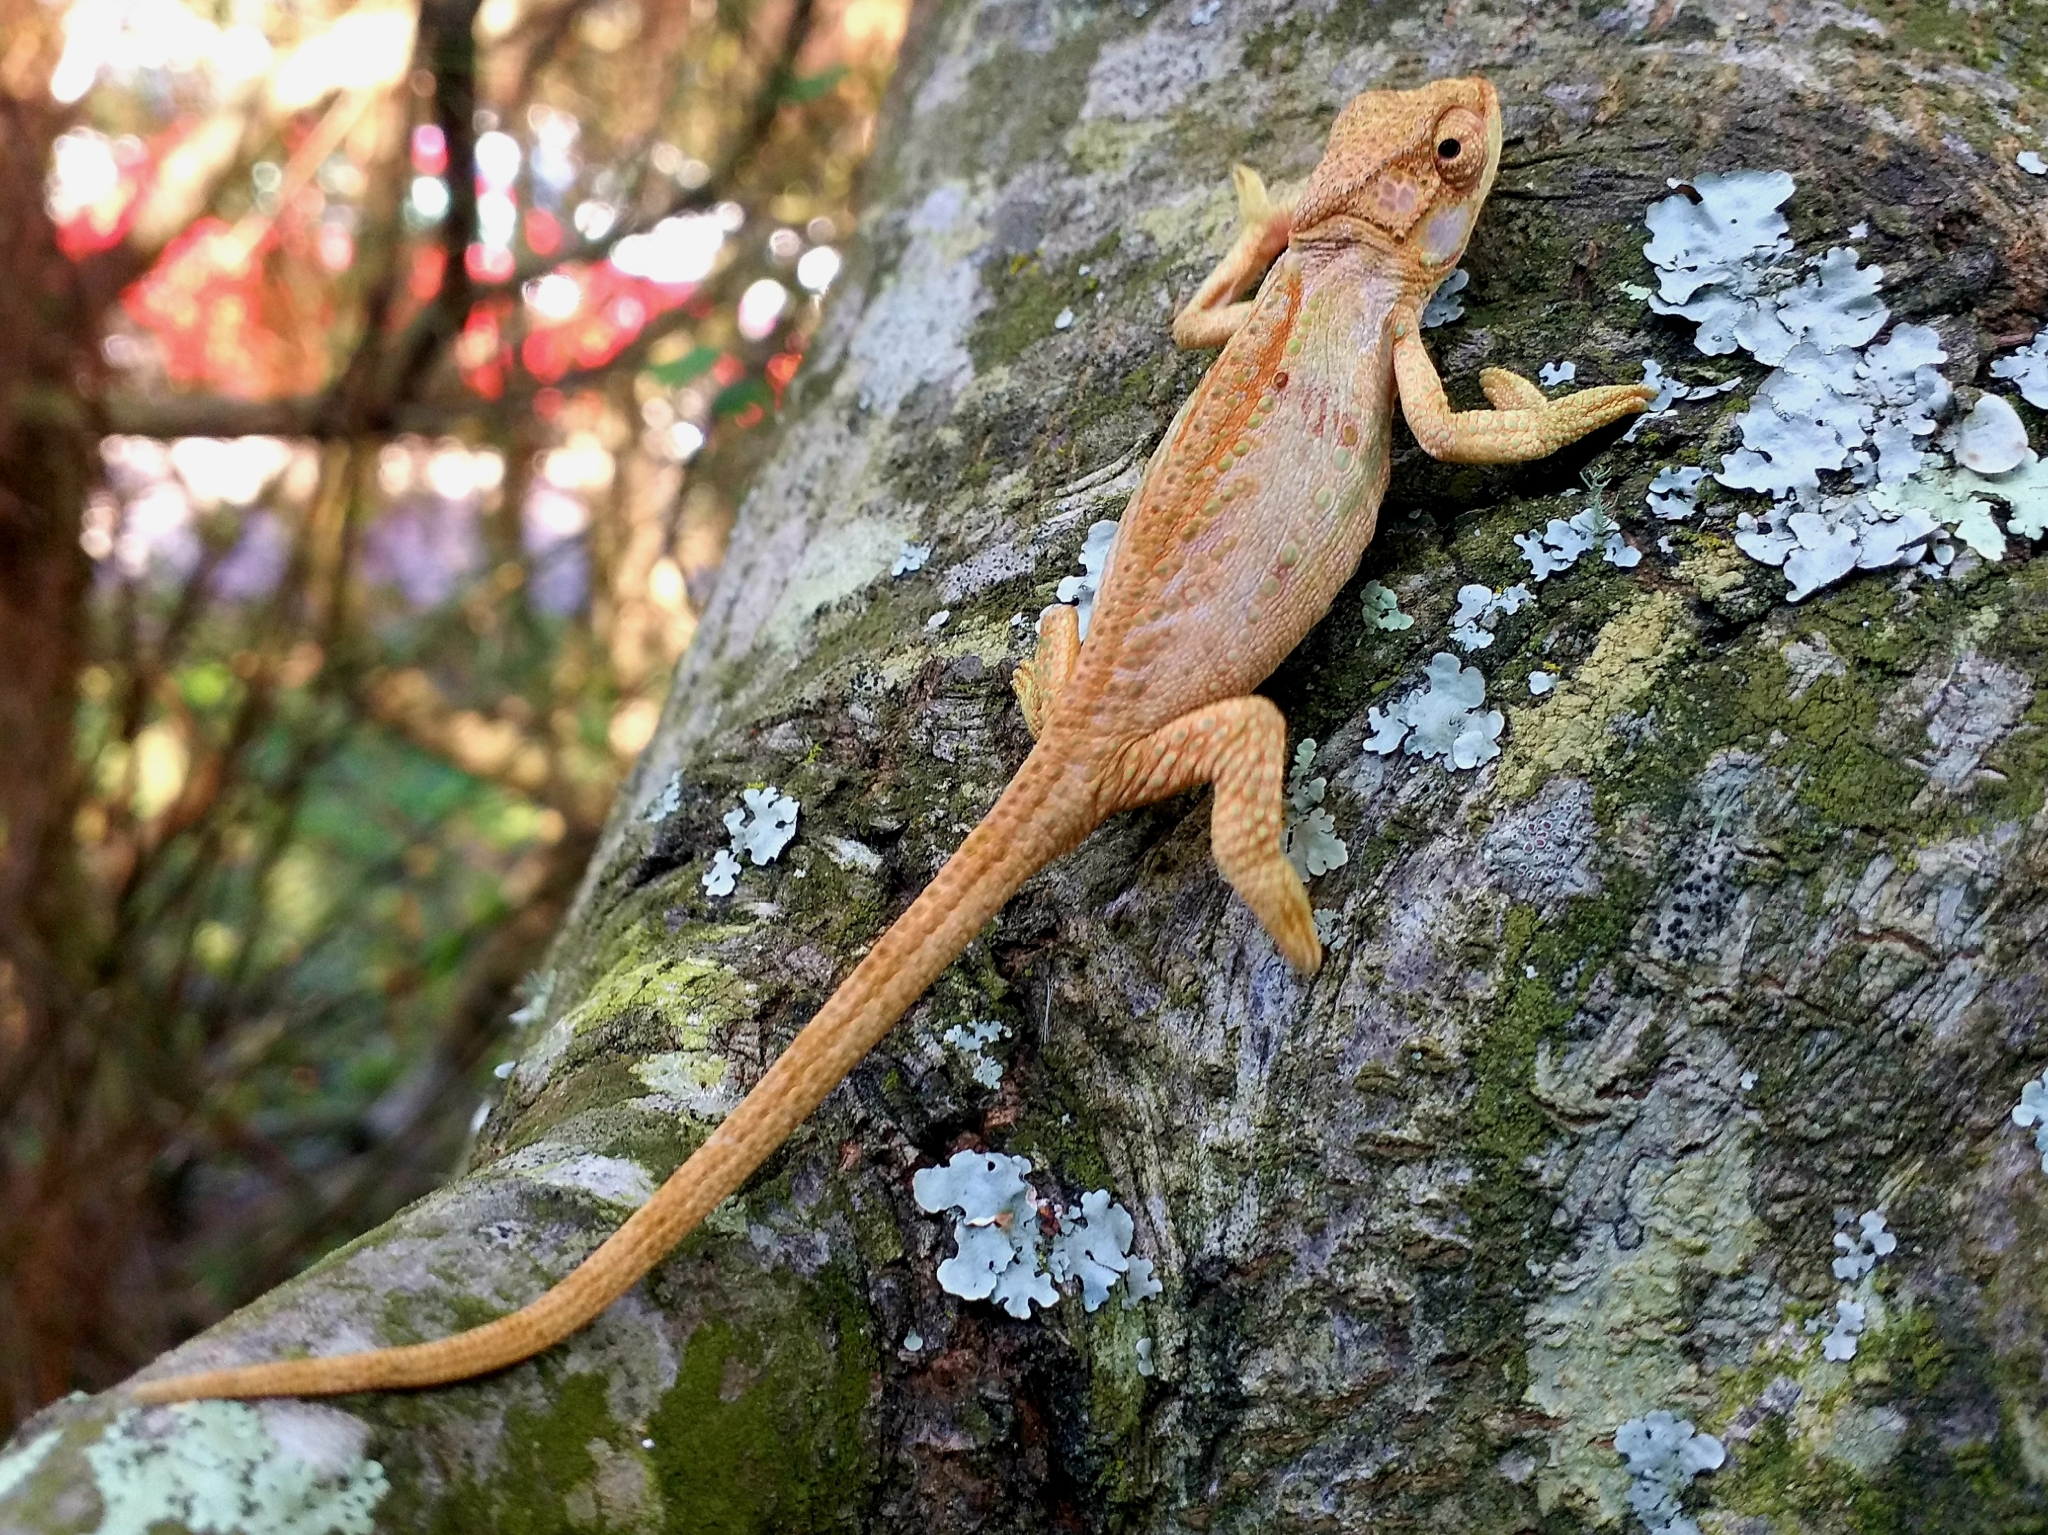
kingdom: Animalia
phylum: Chordata
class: Squamata
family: Chamaeleonidae
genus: Bradypodion
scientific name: Bradypodion damaranum
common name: Knysna dwarf chameleon
